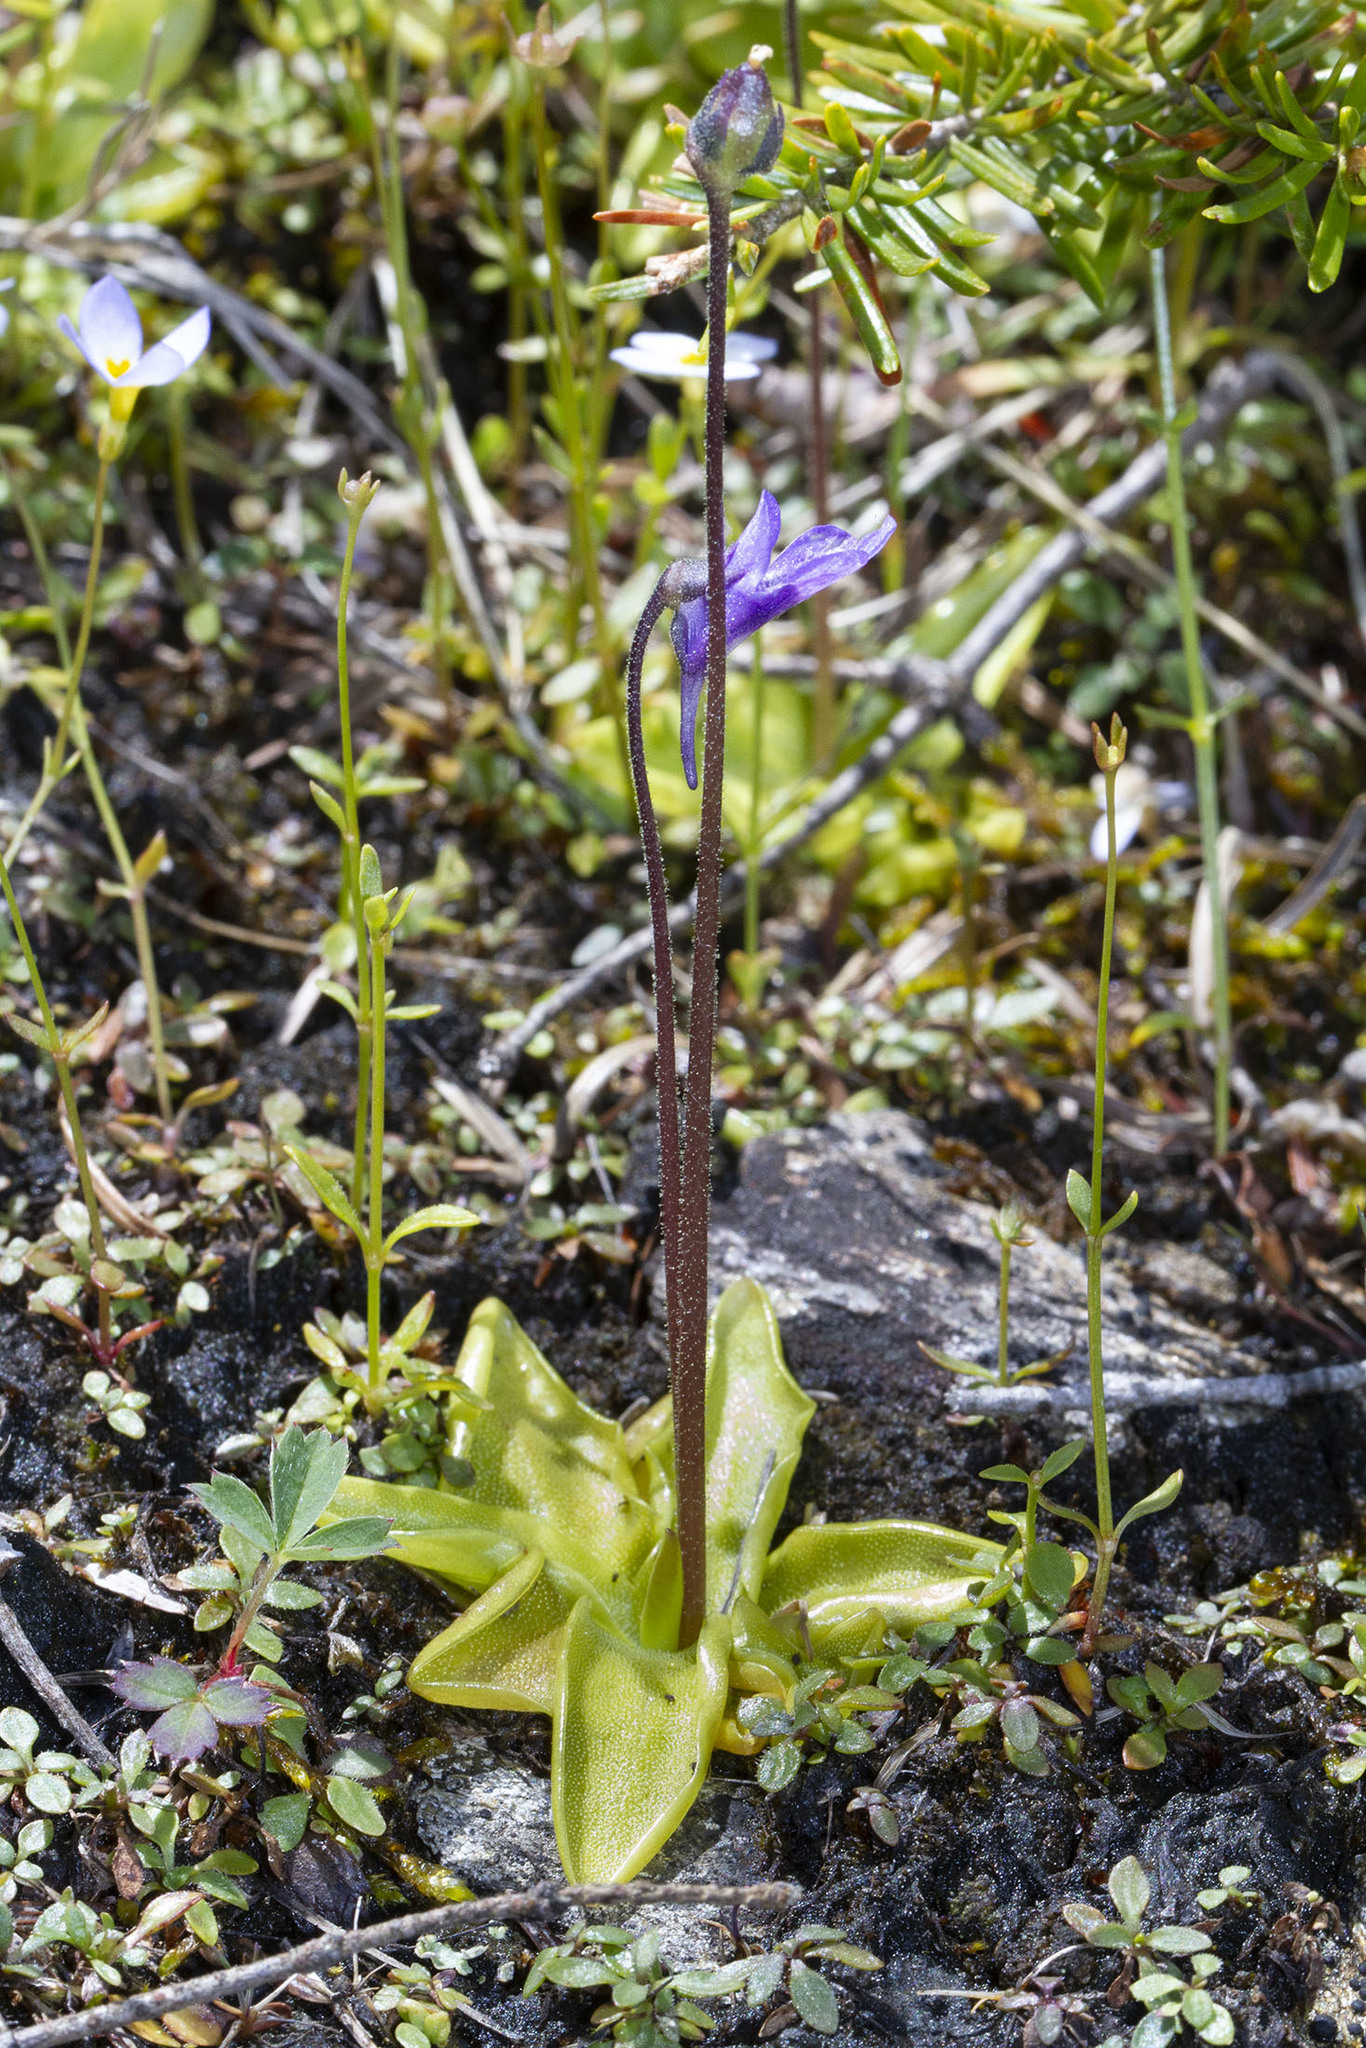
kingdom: Plantae
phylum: Tracheophyta
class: Magnoliopsida
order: Lamiales
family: Lentibulariaceae
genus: Pinguicula
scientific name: Pinguicula vulgaris
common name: Common butterwort
